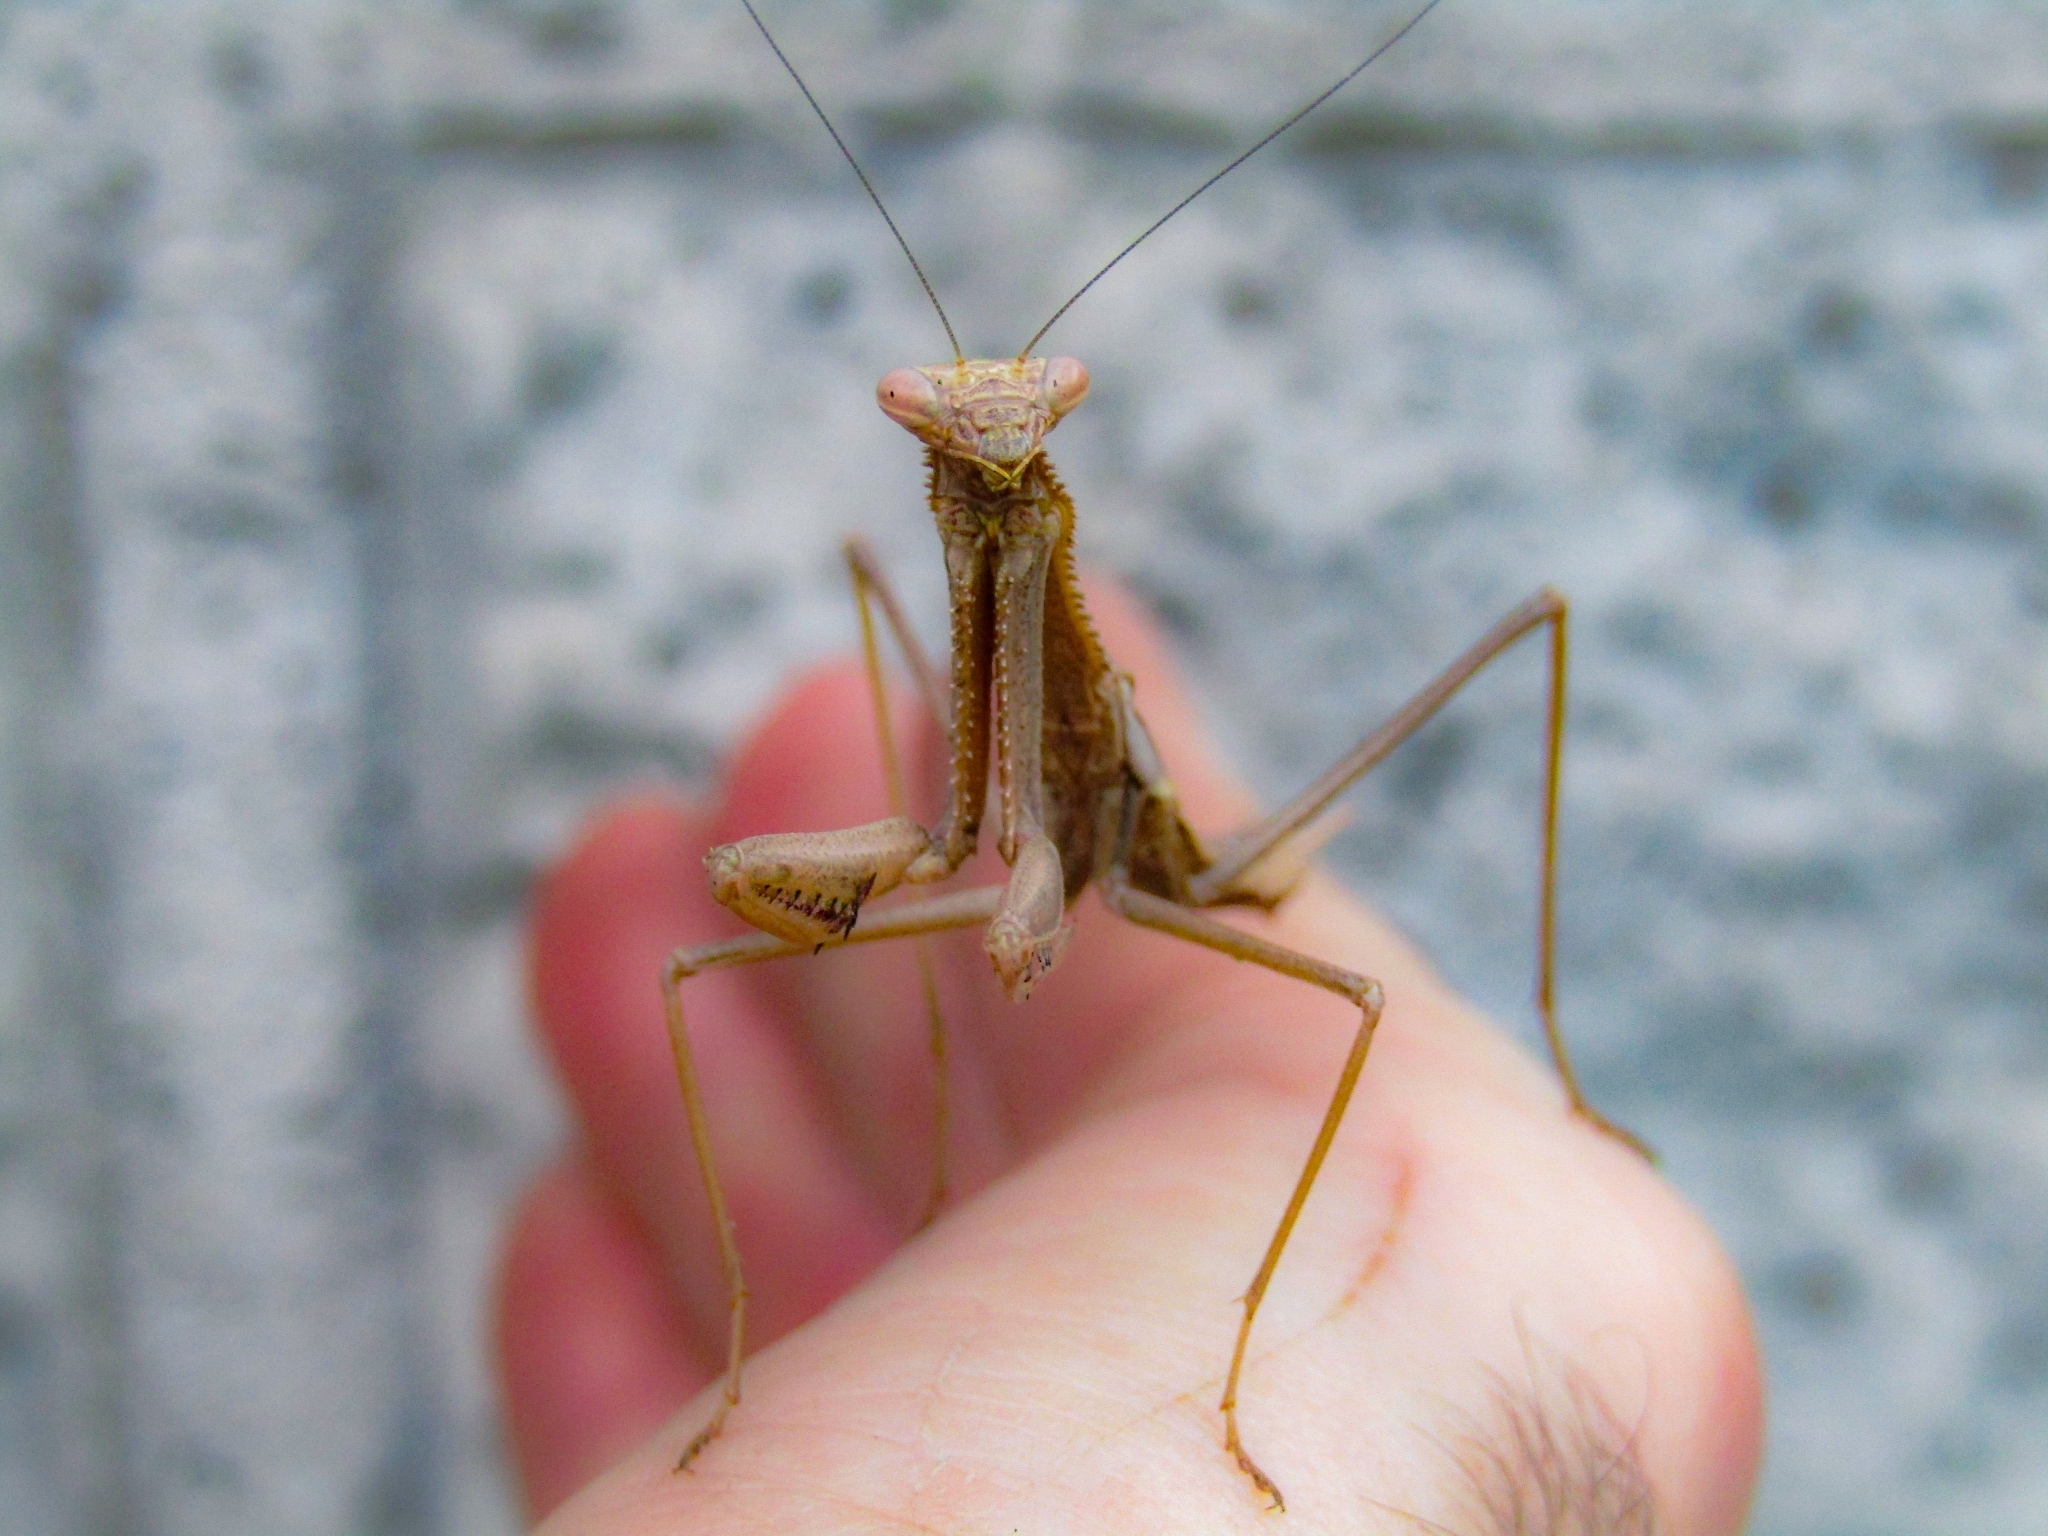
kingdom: Animalia
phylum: Arthropoda
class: Insecta
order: Mantodea
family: Coptopterygidae
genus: Coptopteryx
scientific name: Coptopteryx gayi
